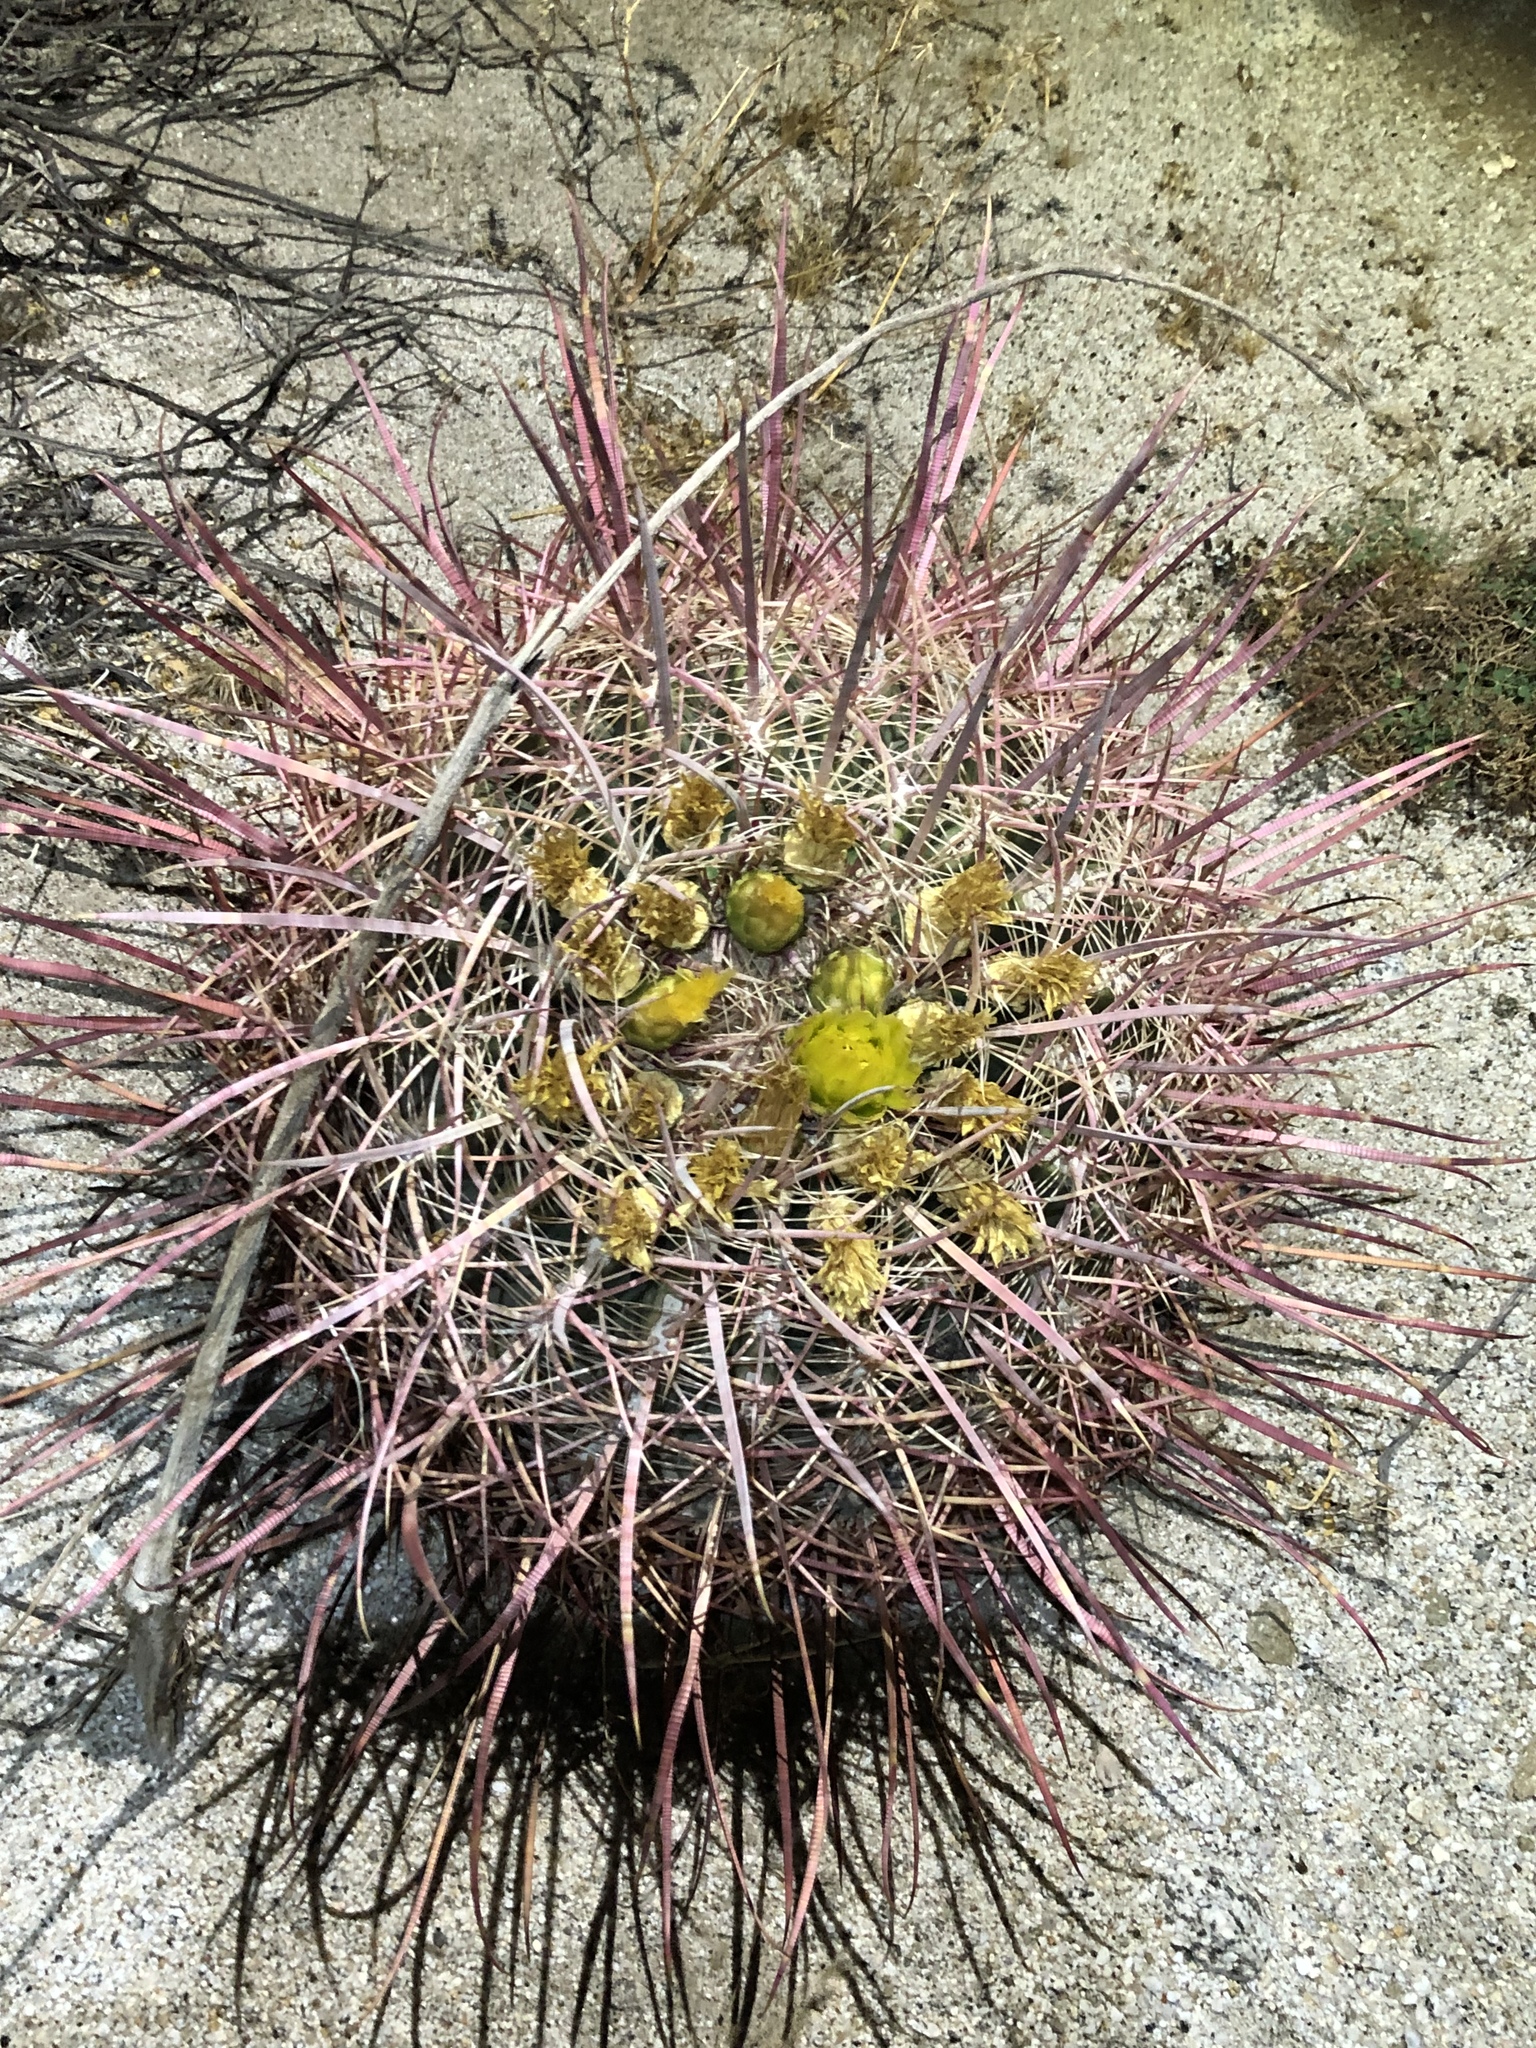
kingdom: Plantae
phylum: Tracheophyta
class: Magnoliopsida
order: Caryophyllales
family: Cactaceae
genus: Ferocactus
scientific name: Ferocactus cylindraceus
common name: California barrel cactus
